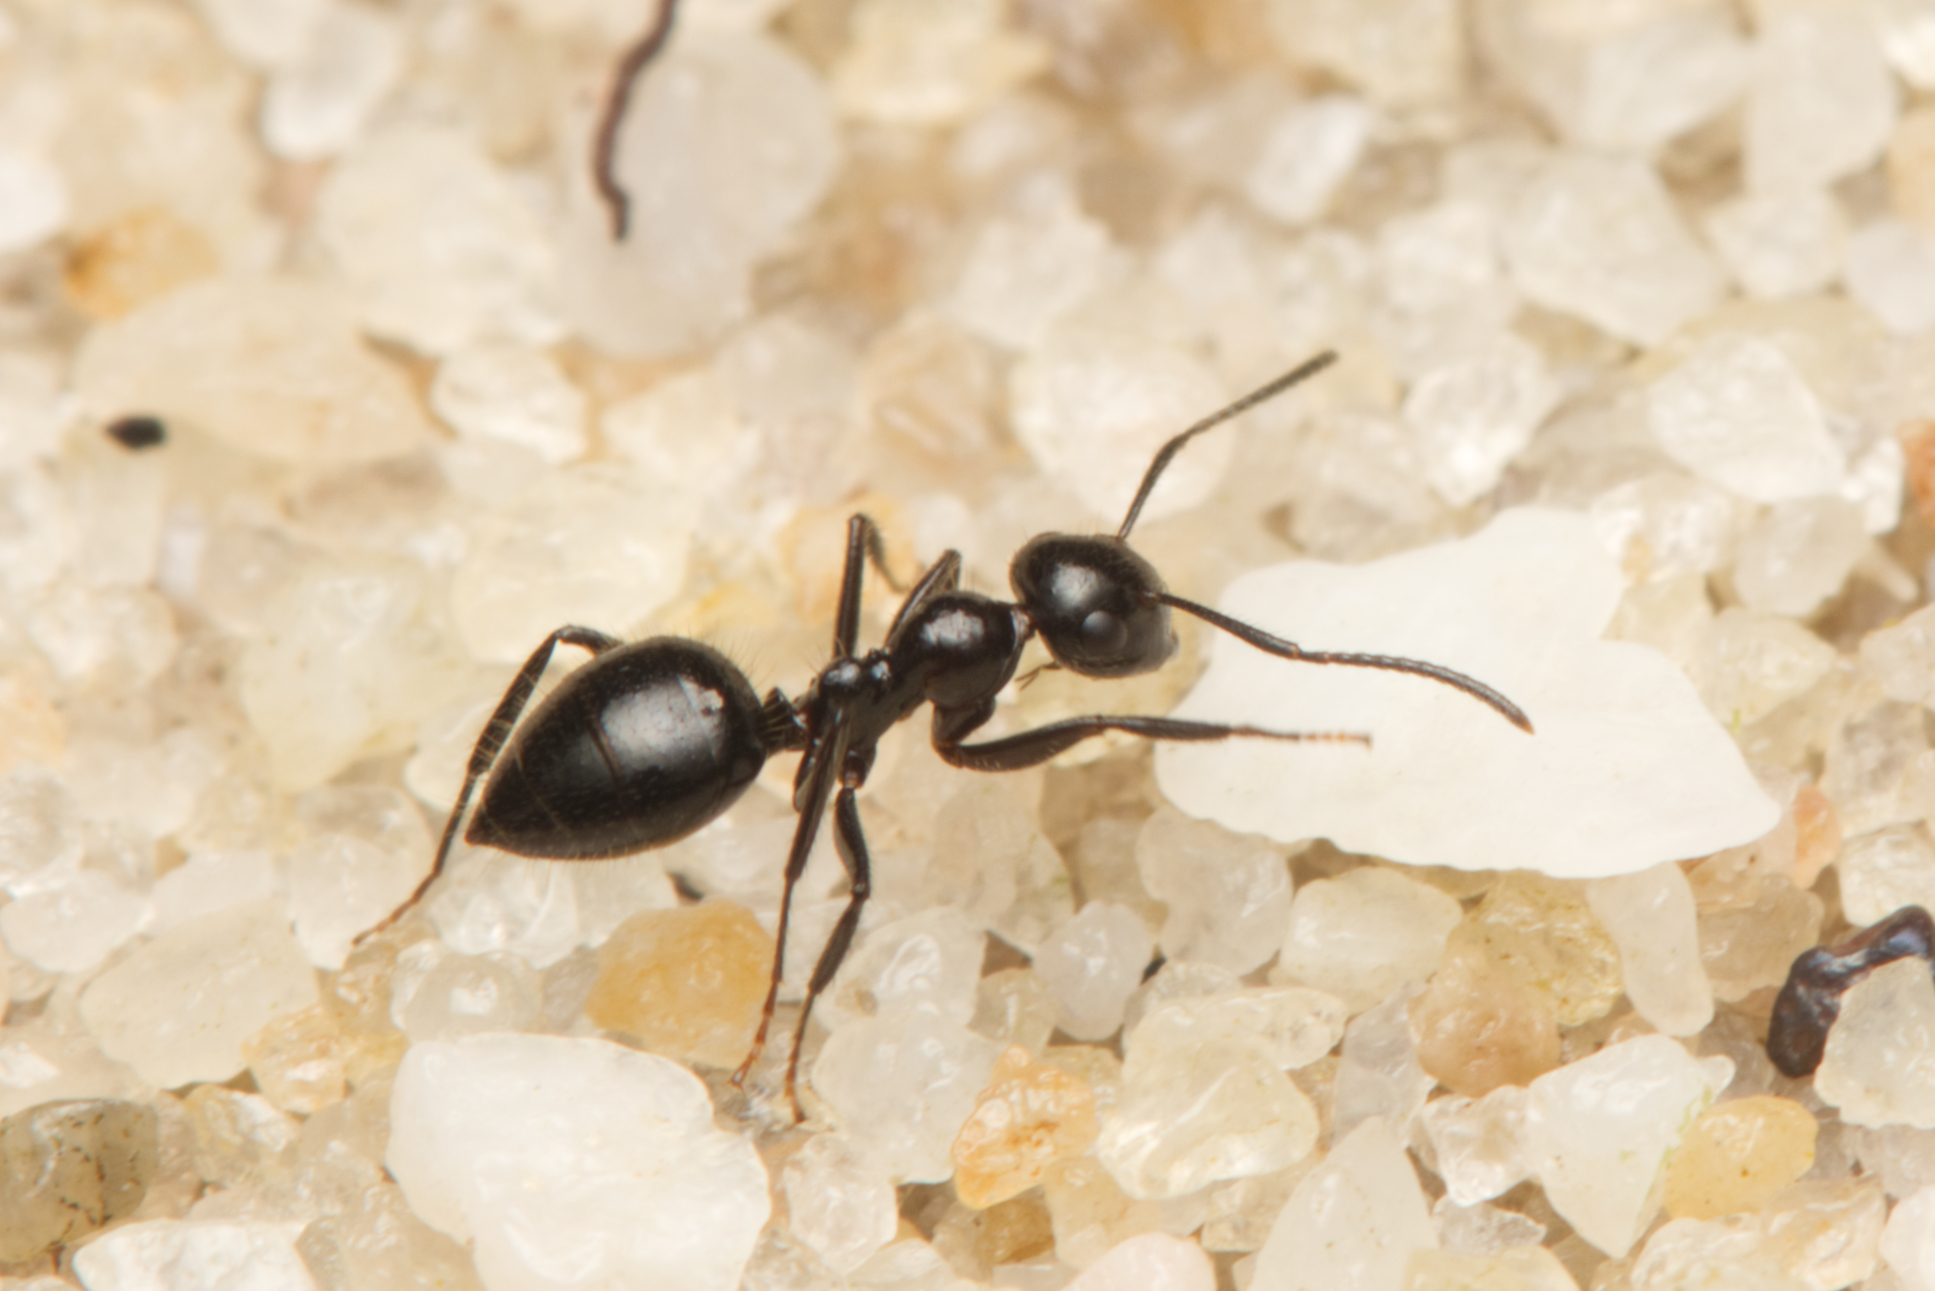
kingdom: Animalia
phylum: Arthropoda
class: Insecta
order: Hymenoptera
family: Formicidae
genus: Camponotus
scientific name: Camponotus vitreus
